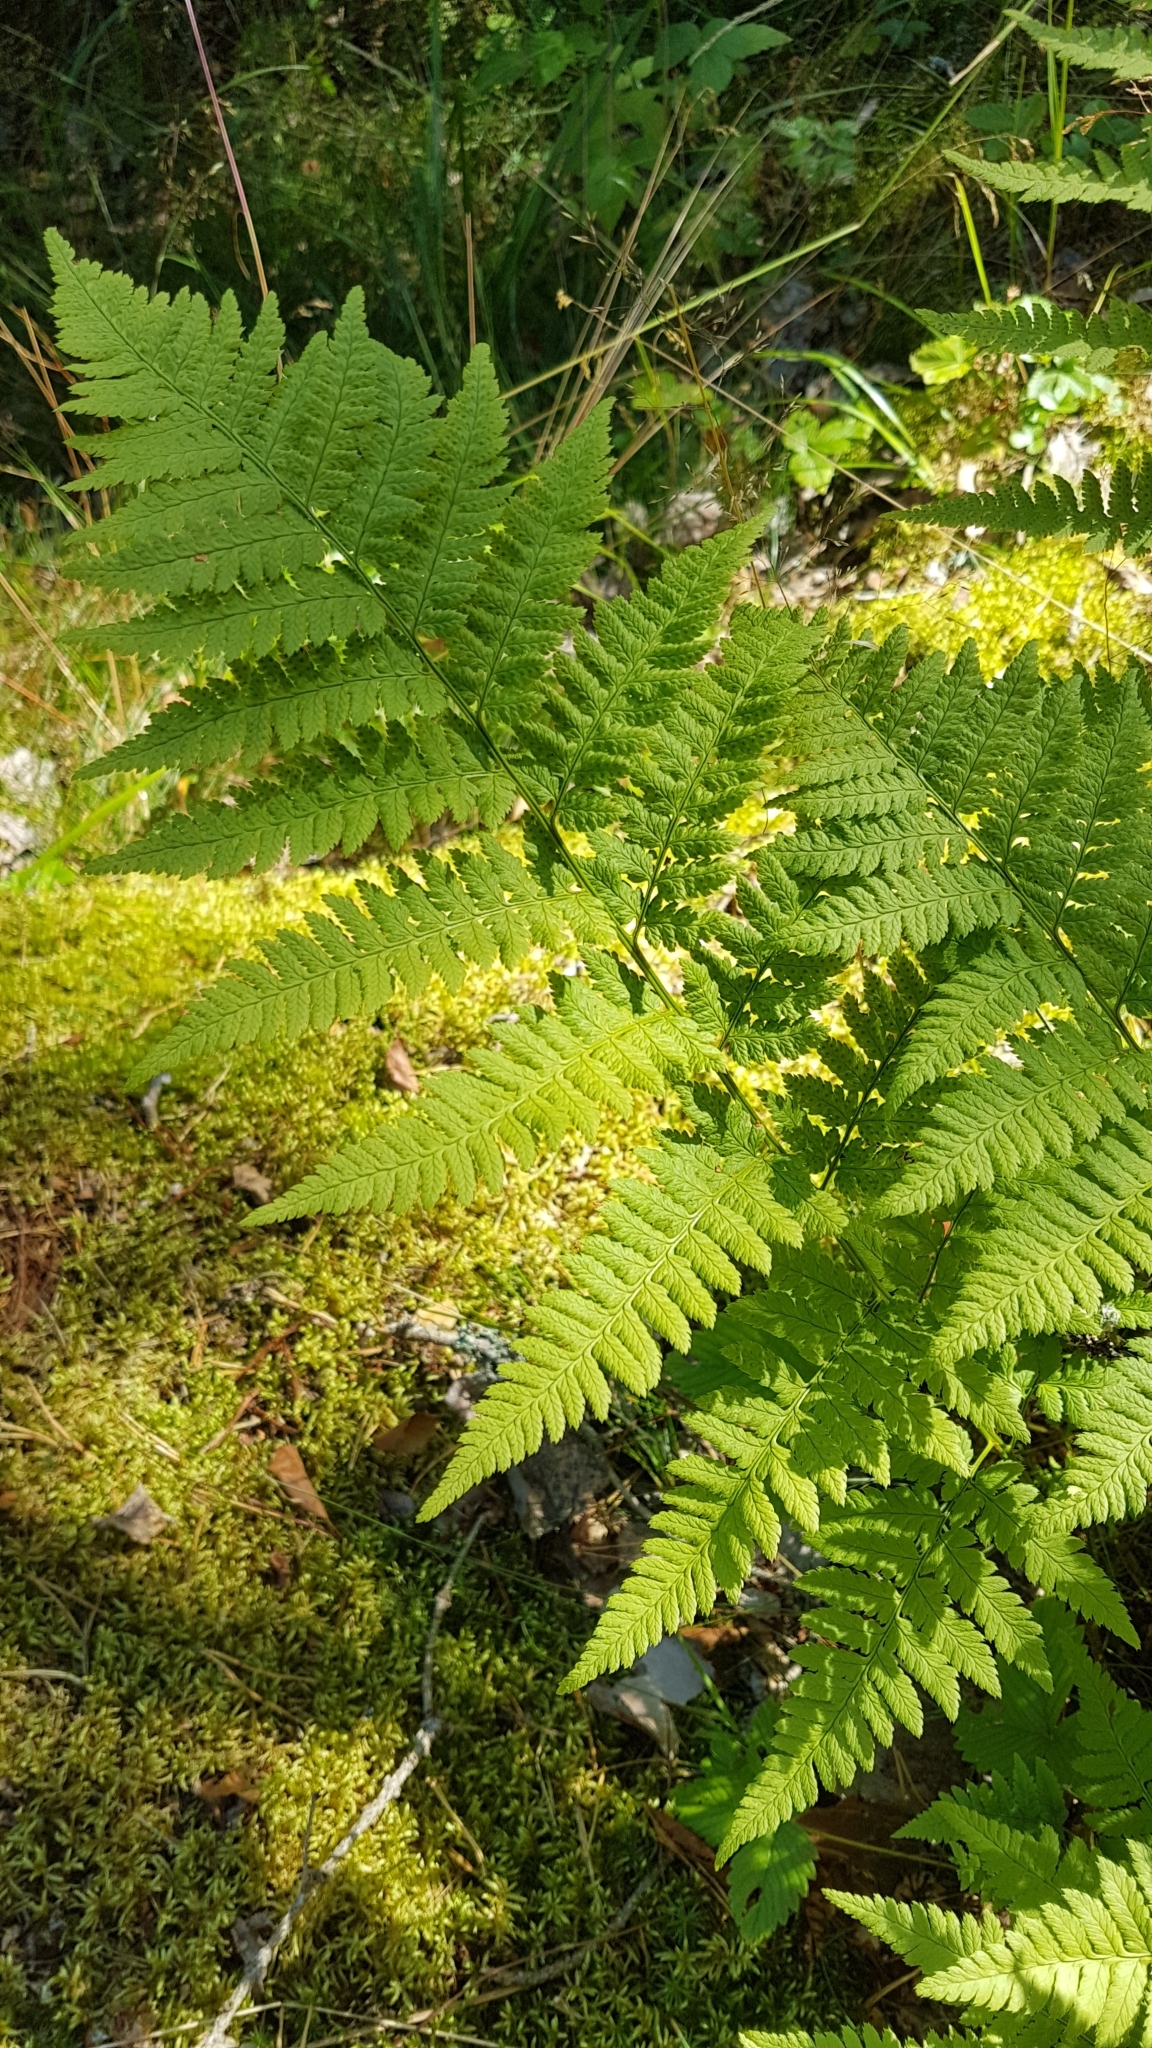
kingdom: Plantae
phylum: Tracheophyta
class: Polypodiopsida
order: Polypodiales
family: Dryopteridaceae
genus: Dryopteris
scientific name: Dryopteris expansa
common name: Northern buckler fern
